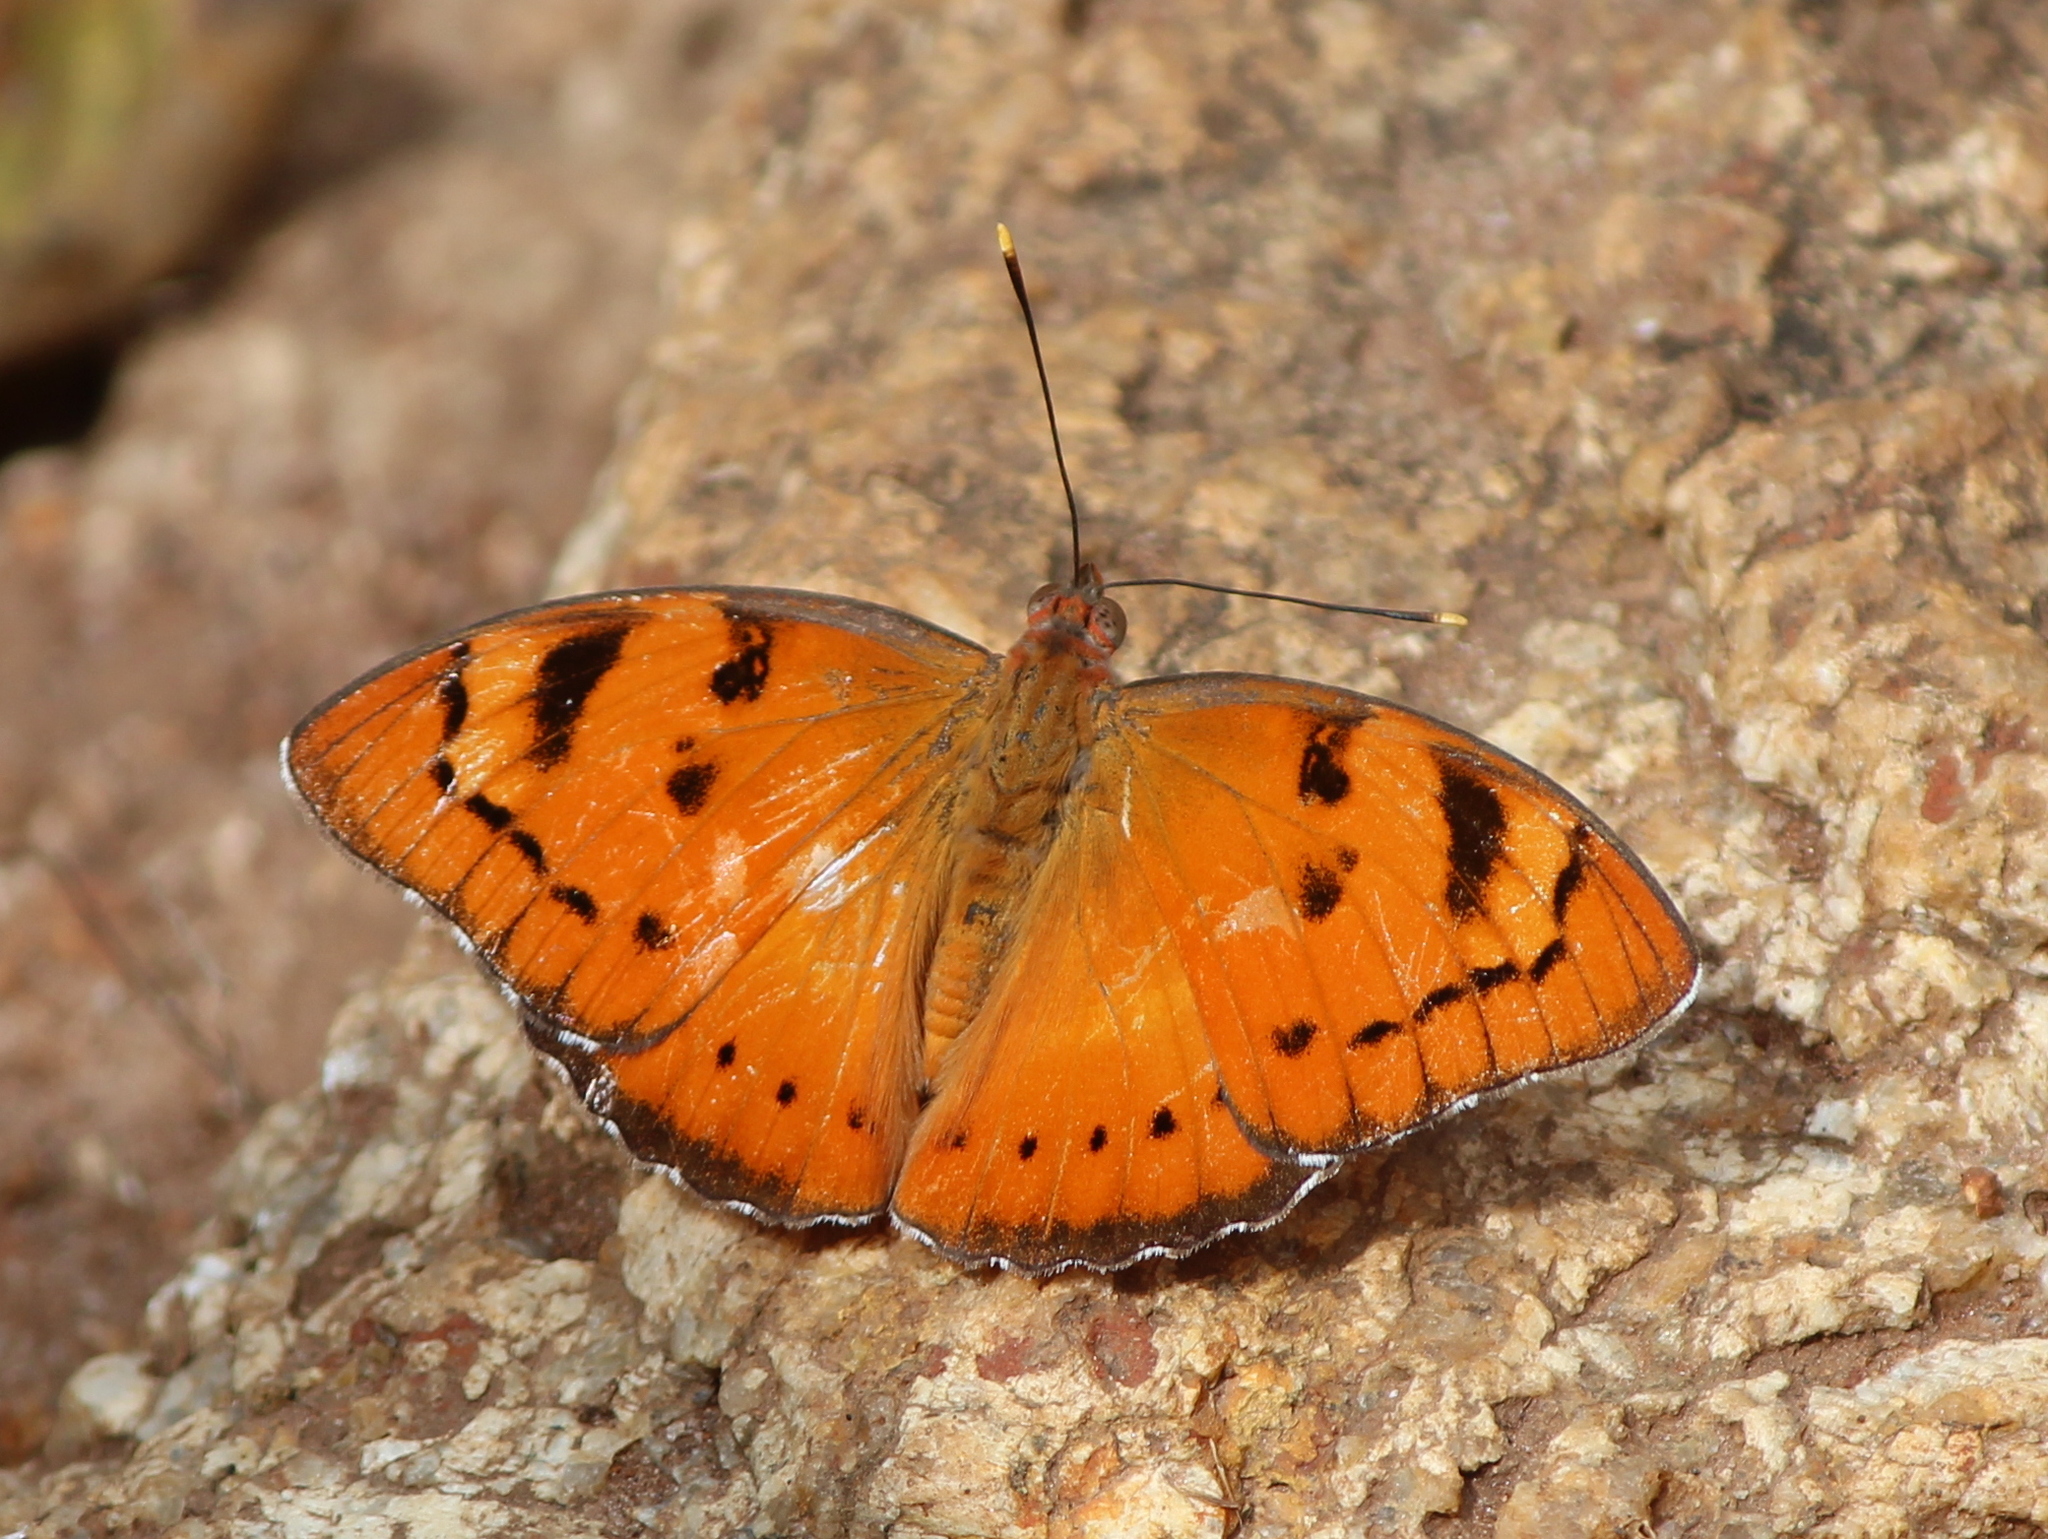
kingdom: Animalia
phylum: Arthropoda
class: Insecta
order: Lepidoptera
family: Nymphalidae
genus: Euthalia
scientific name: Euthalia nais
